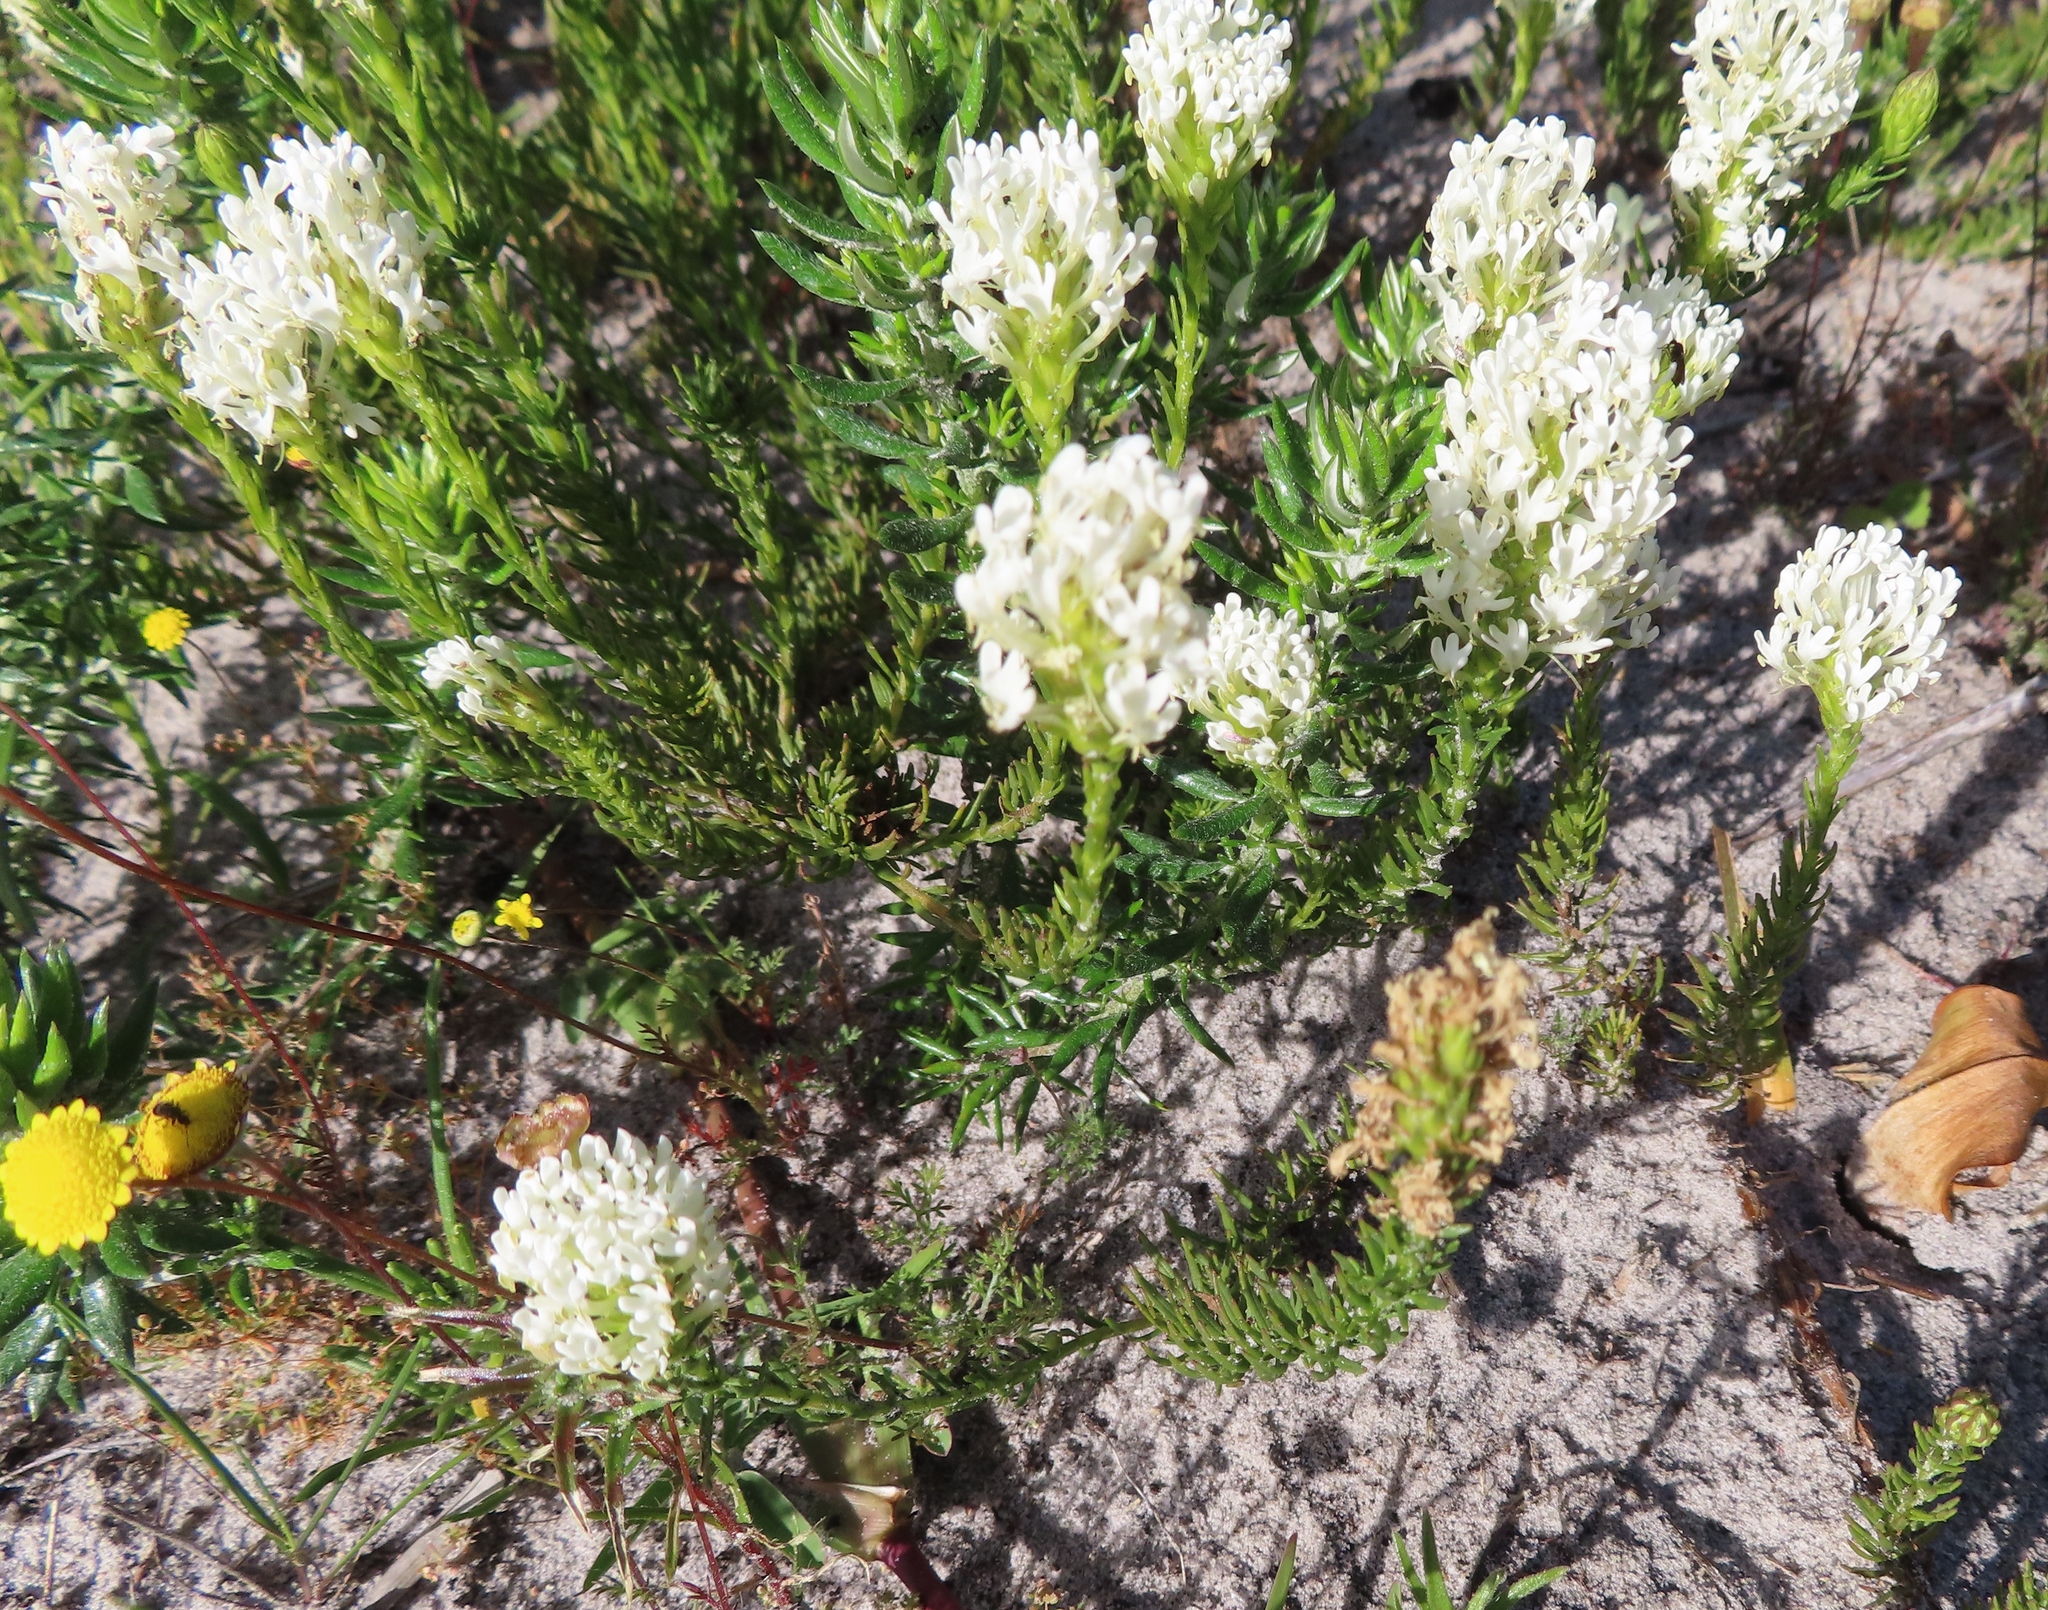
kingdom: Plantae
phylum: Tracheophyta
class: Magnoliopsida
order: Lamiales
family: Scrophulariaceae
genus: Dischisma
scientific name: Dischisma ciliatum
